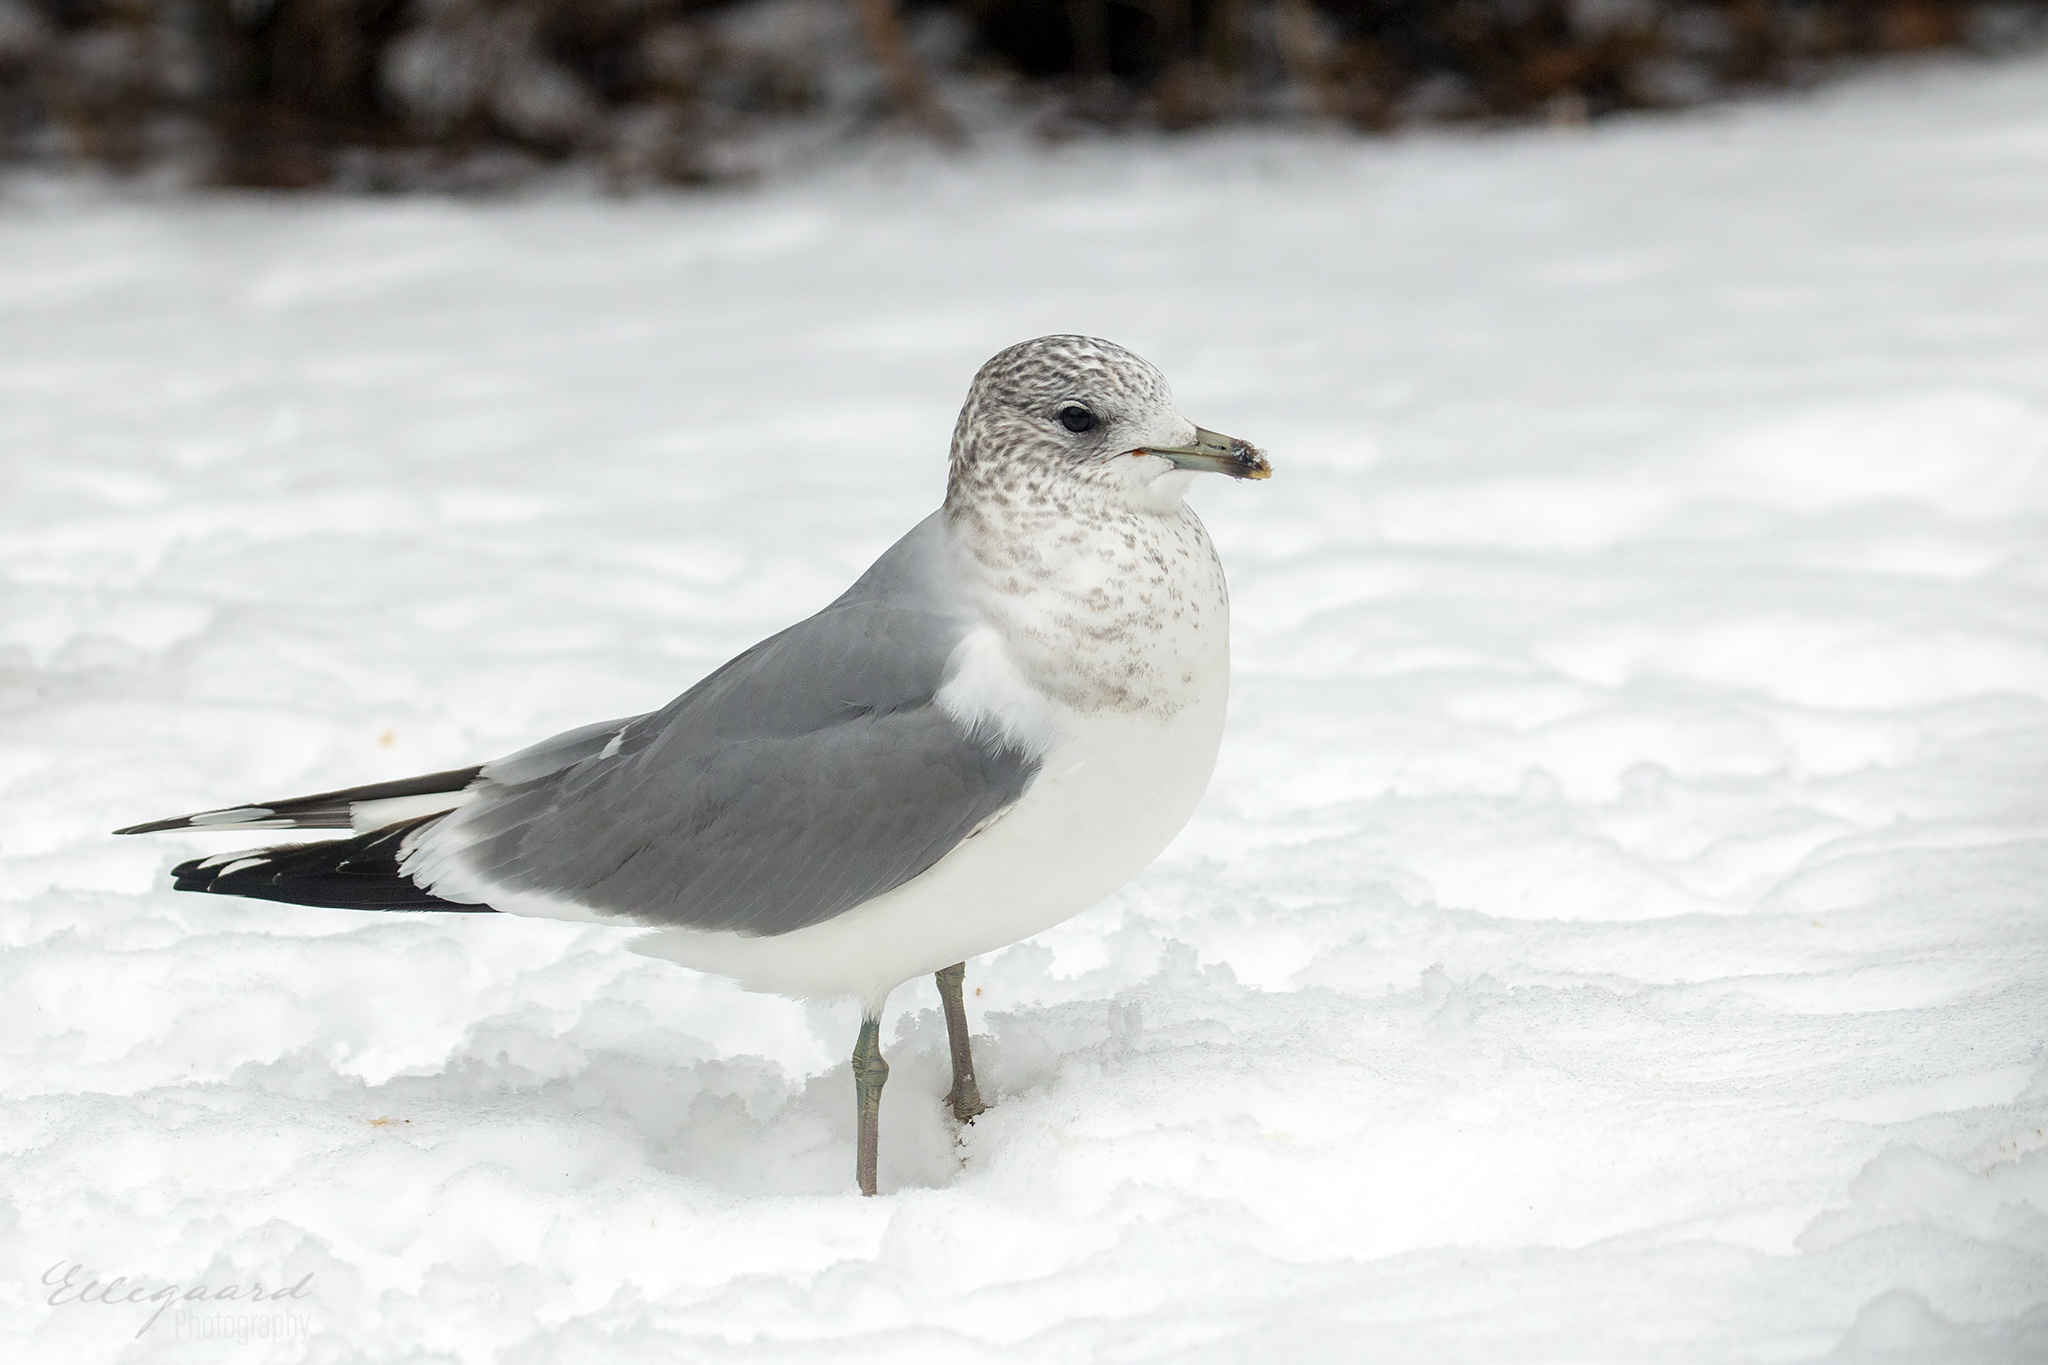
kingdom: Animalia
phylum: Chordata
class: Aves
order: Charadriiformes
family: Laridae
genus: Larus
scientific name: Larus canus
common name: Mew gull
